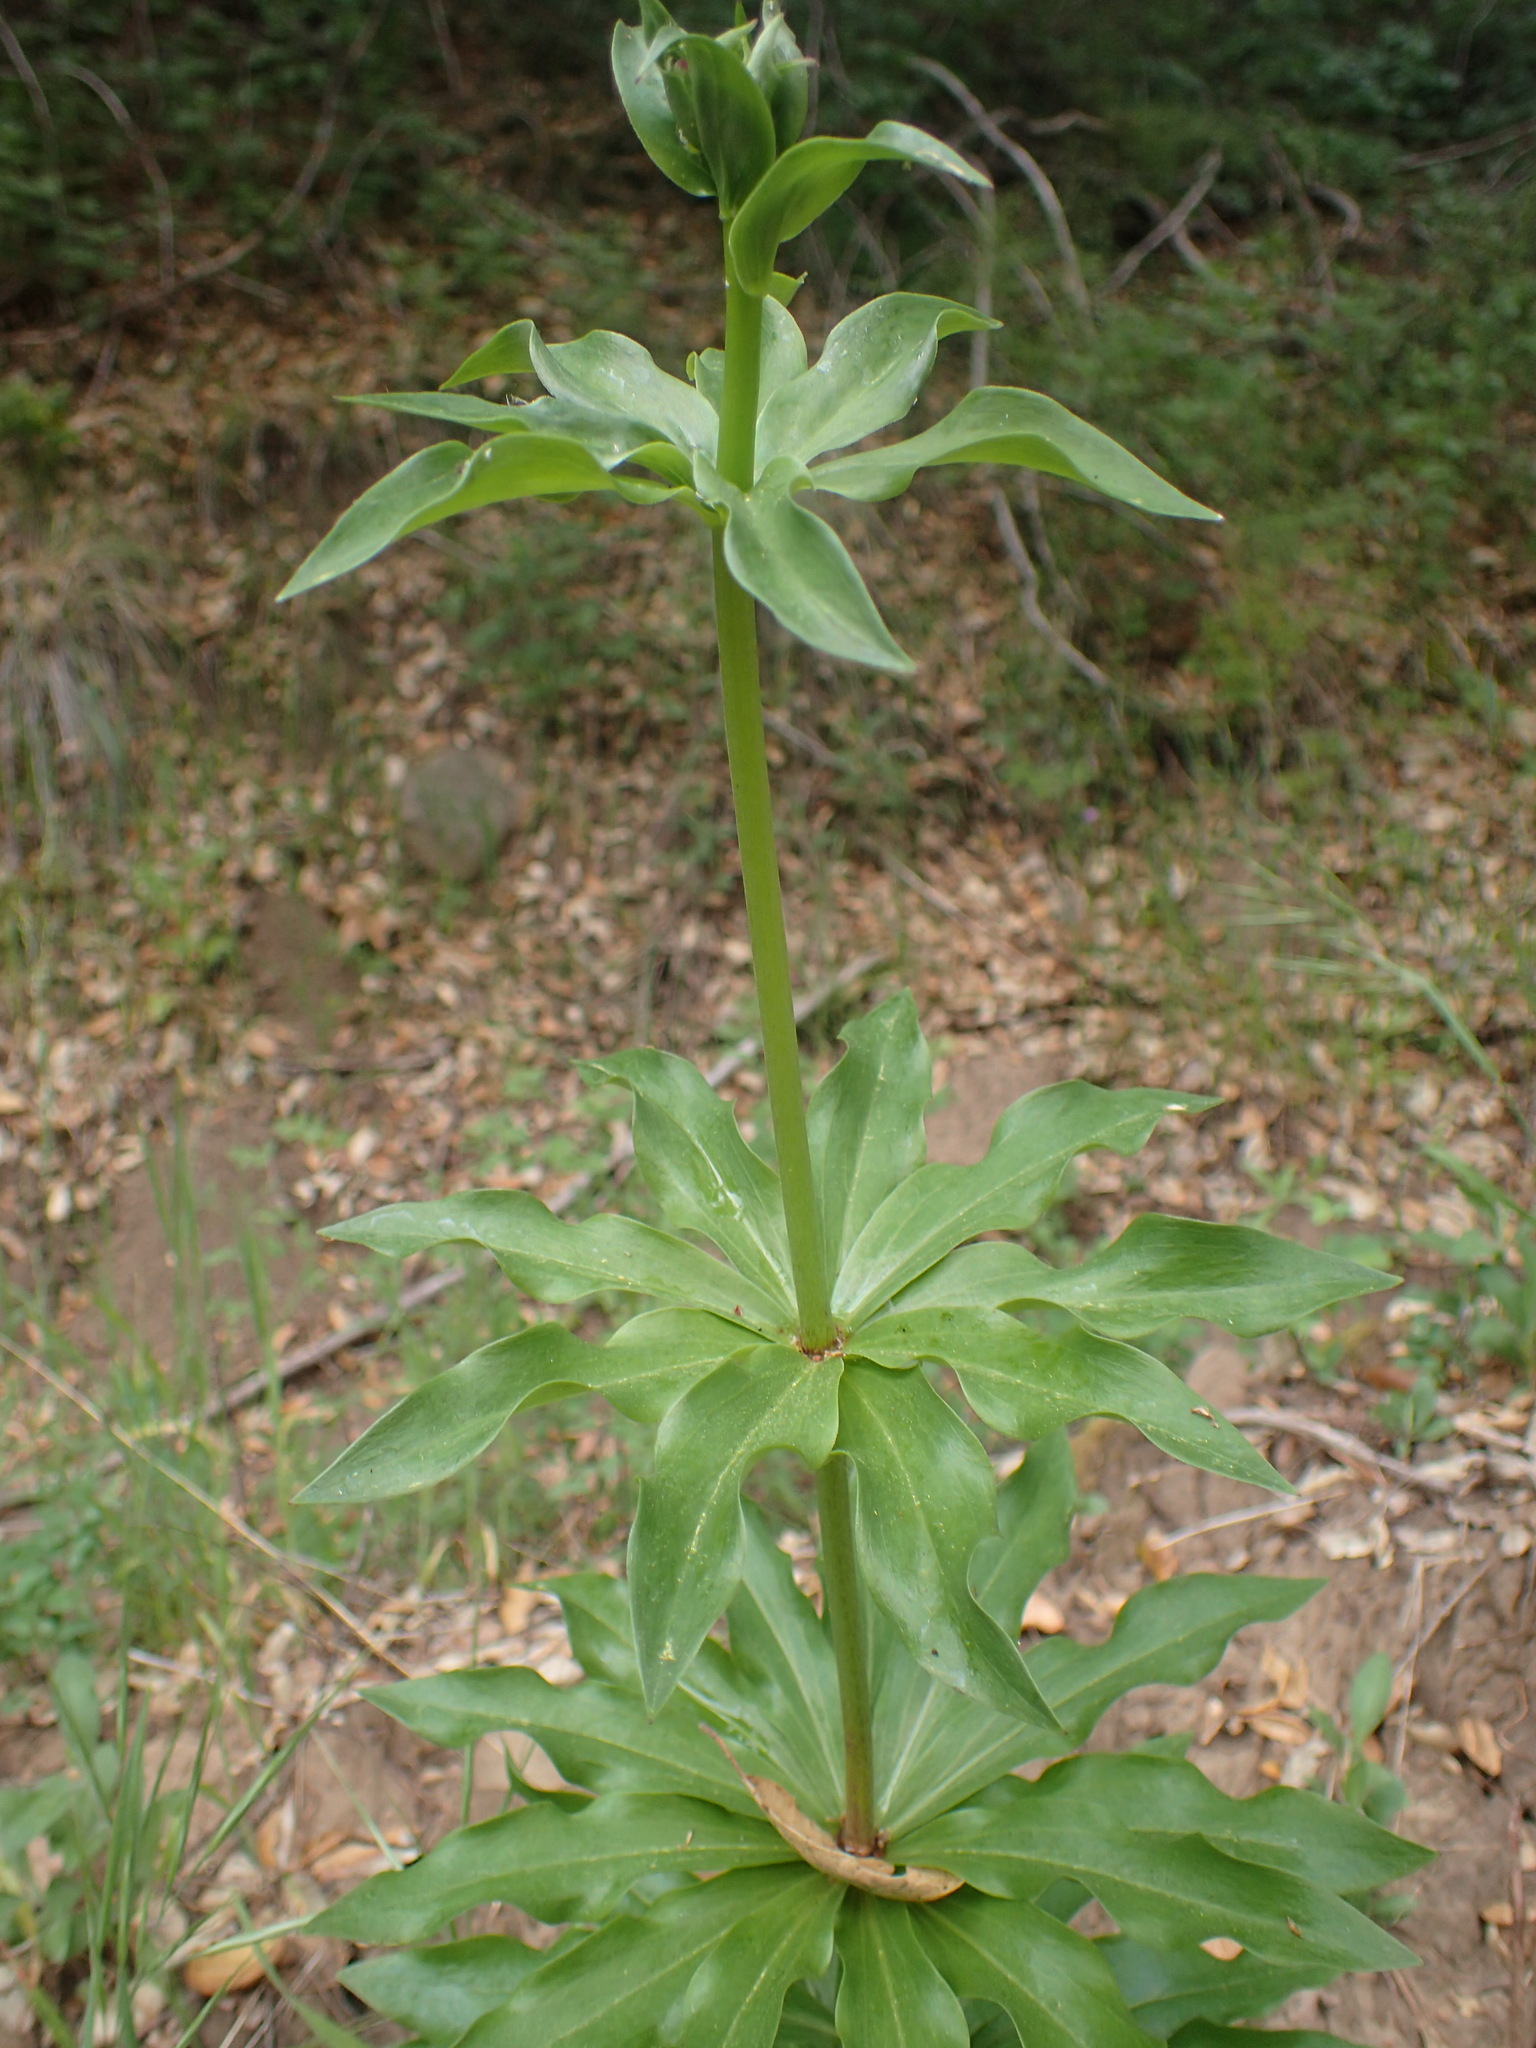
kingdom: Plantae
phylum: Tracheophyta
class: Liliopsida
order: Liliales
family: Liliaceae
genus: Lilium
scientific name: Lilium humboldtii
